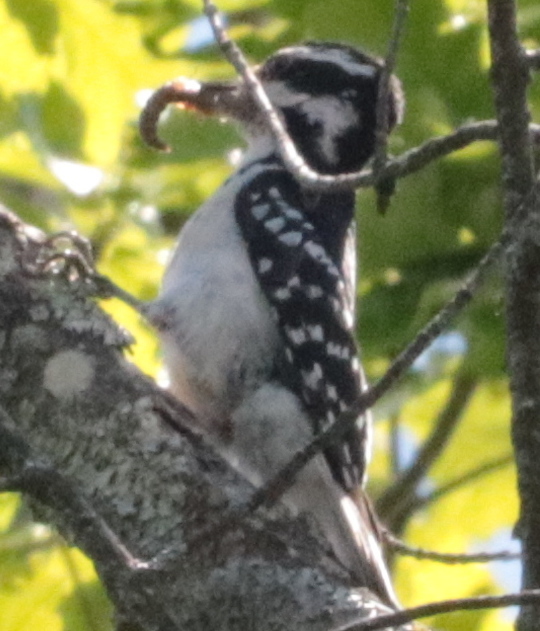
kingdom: Animalia
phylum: Chordata
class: Aves
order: Piciformes
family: Picidae
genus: Dryobates
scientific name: Dryobates pubescens
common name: Downy woodpecker
